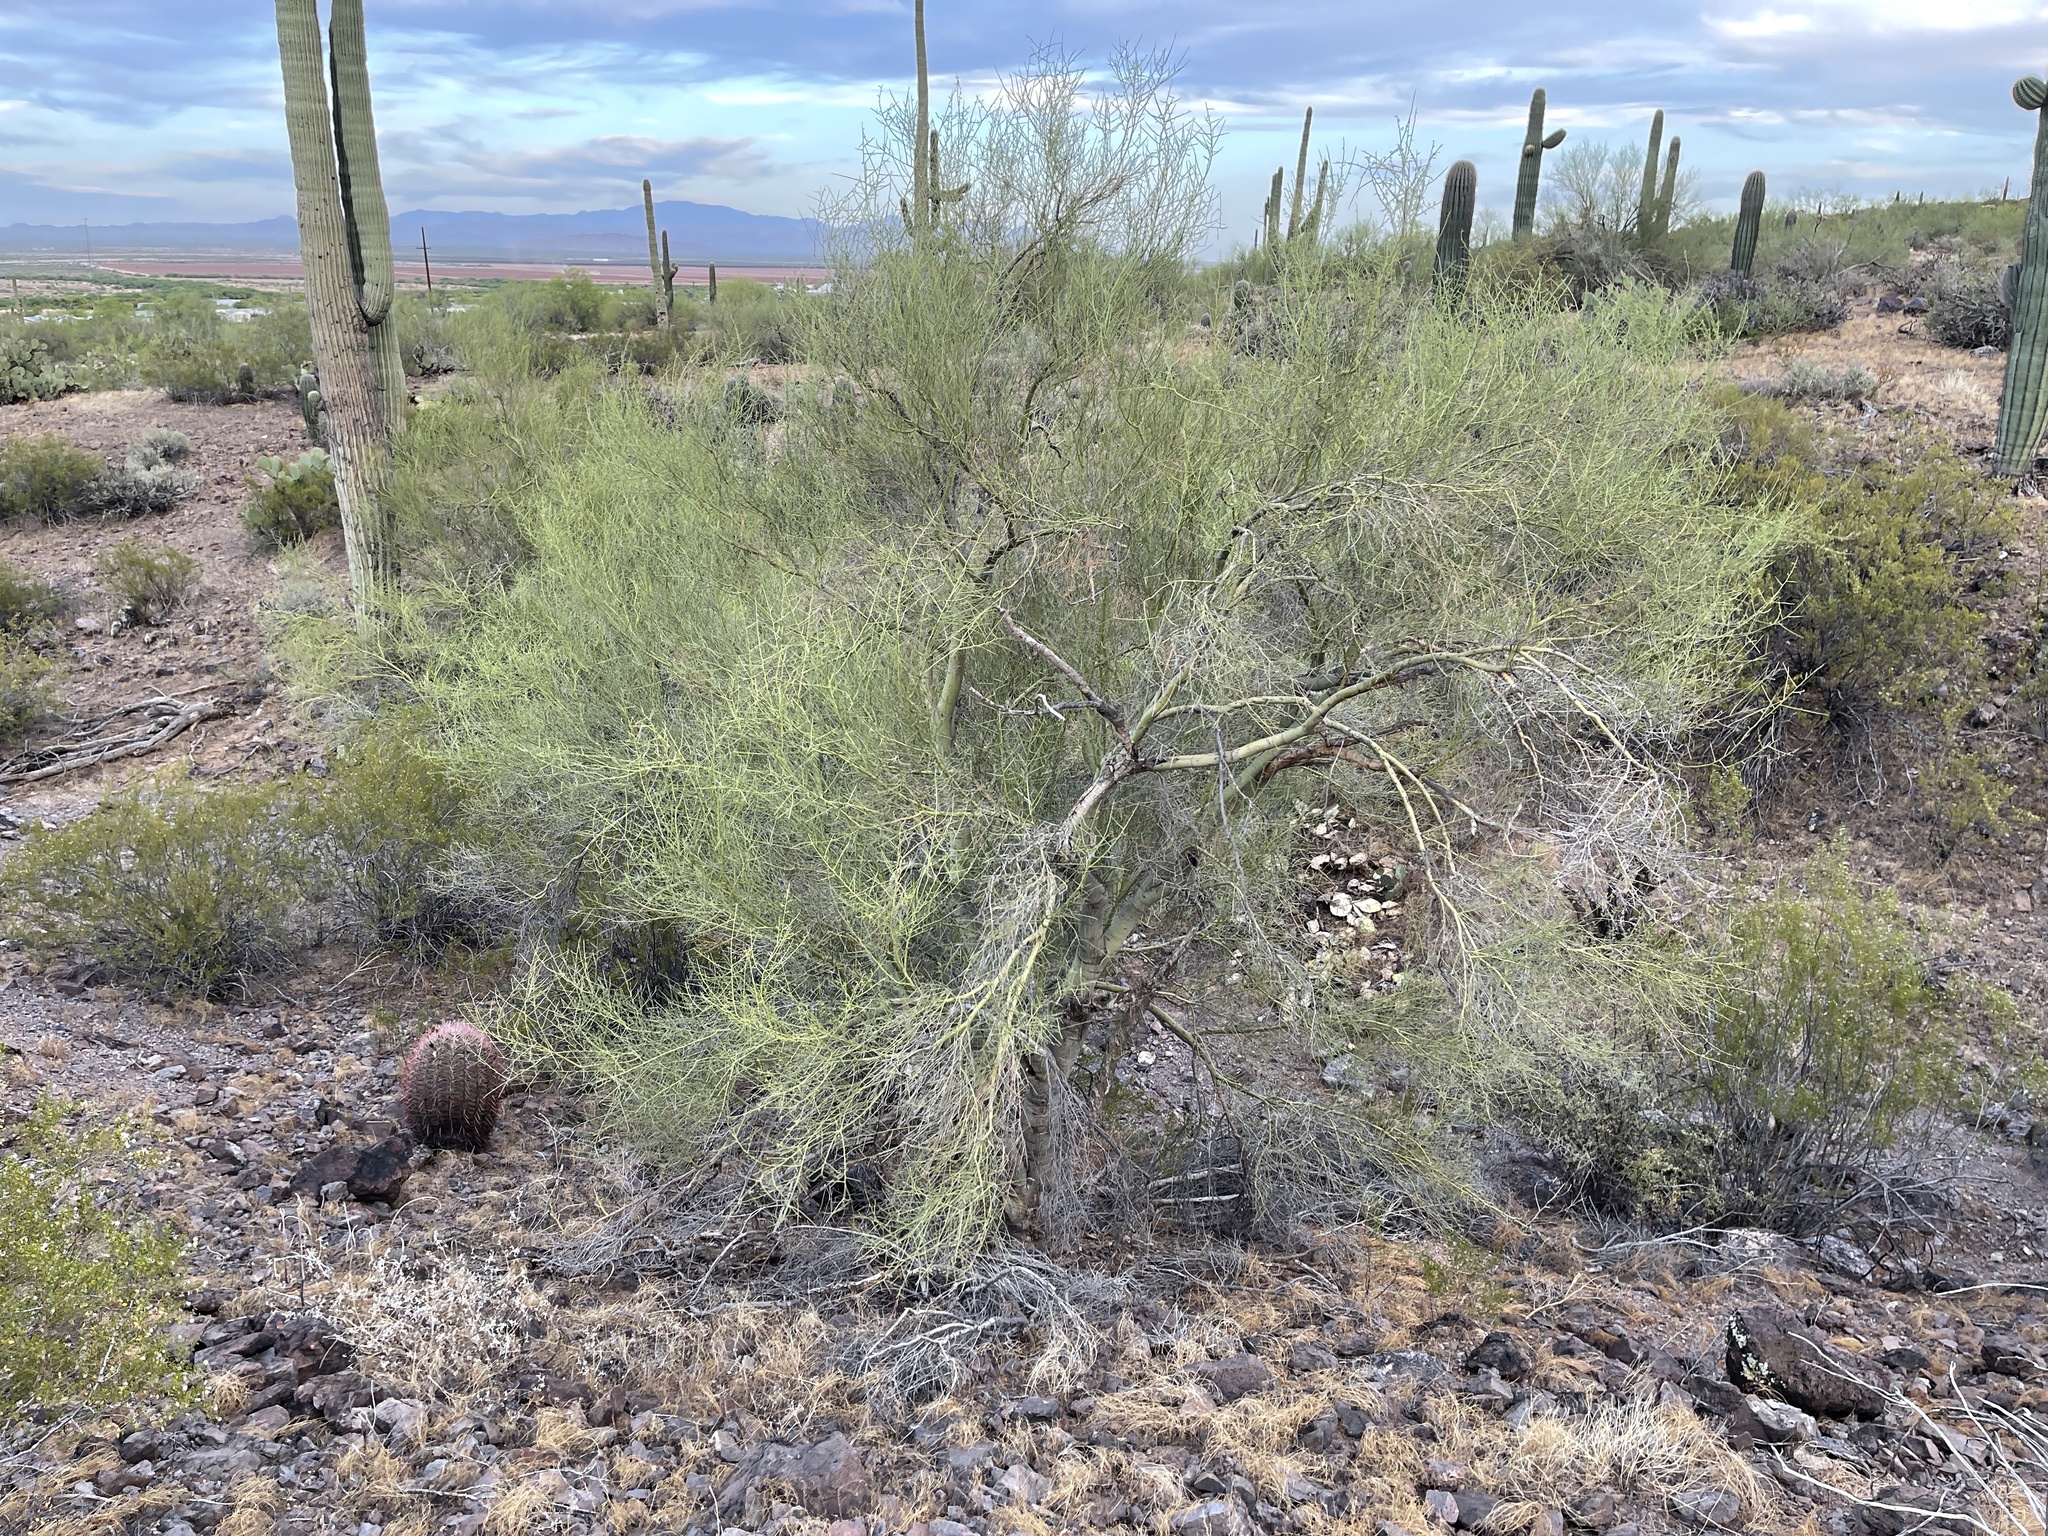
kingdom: Plantae
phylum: Tracheophyta
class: Magnoliopsida
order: Fabales
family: Fabaceae
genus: Parkinsonia
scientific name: Parkinsonia microphylla
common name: Yellow paloverde
